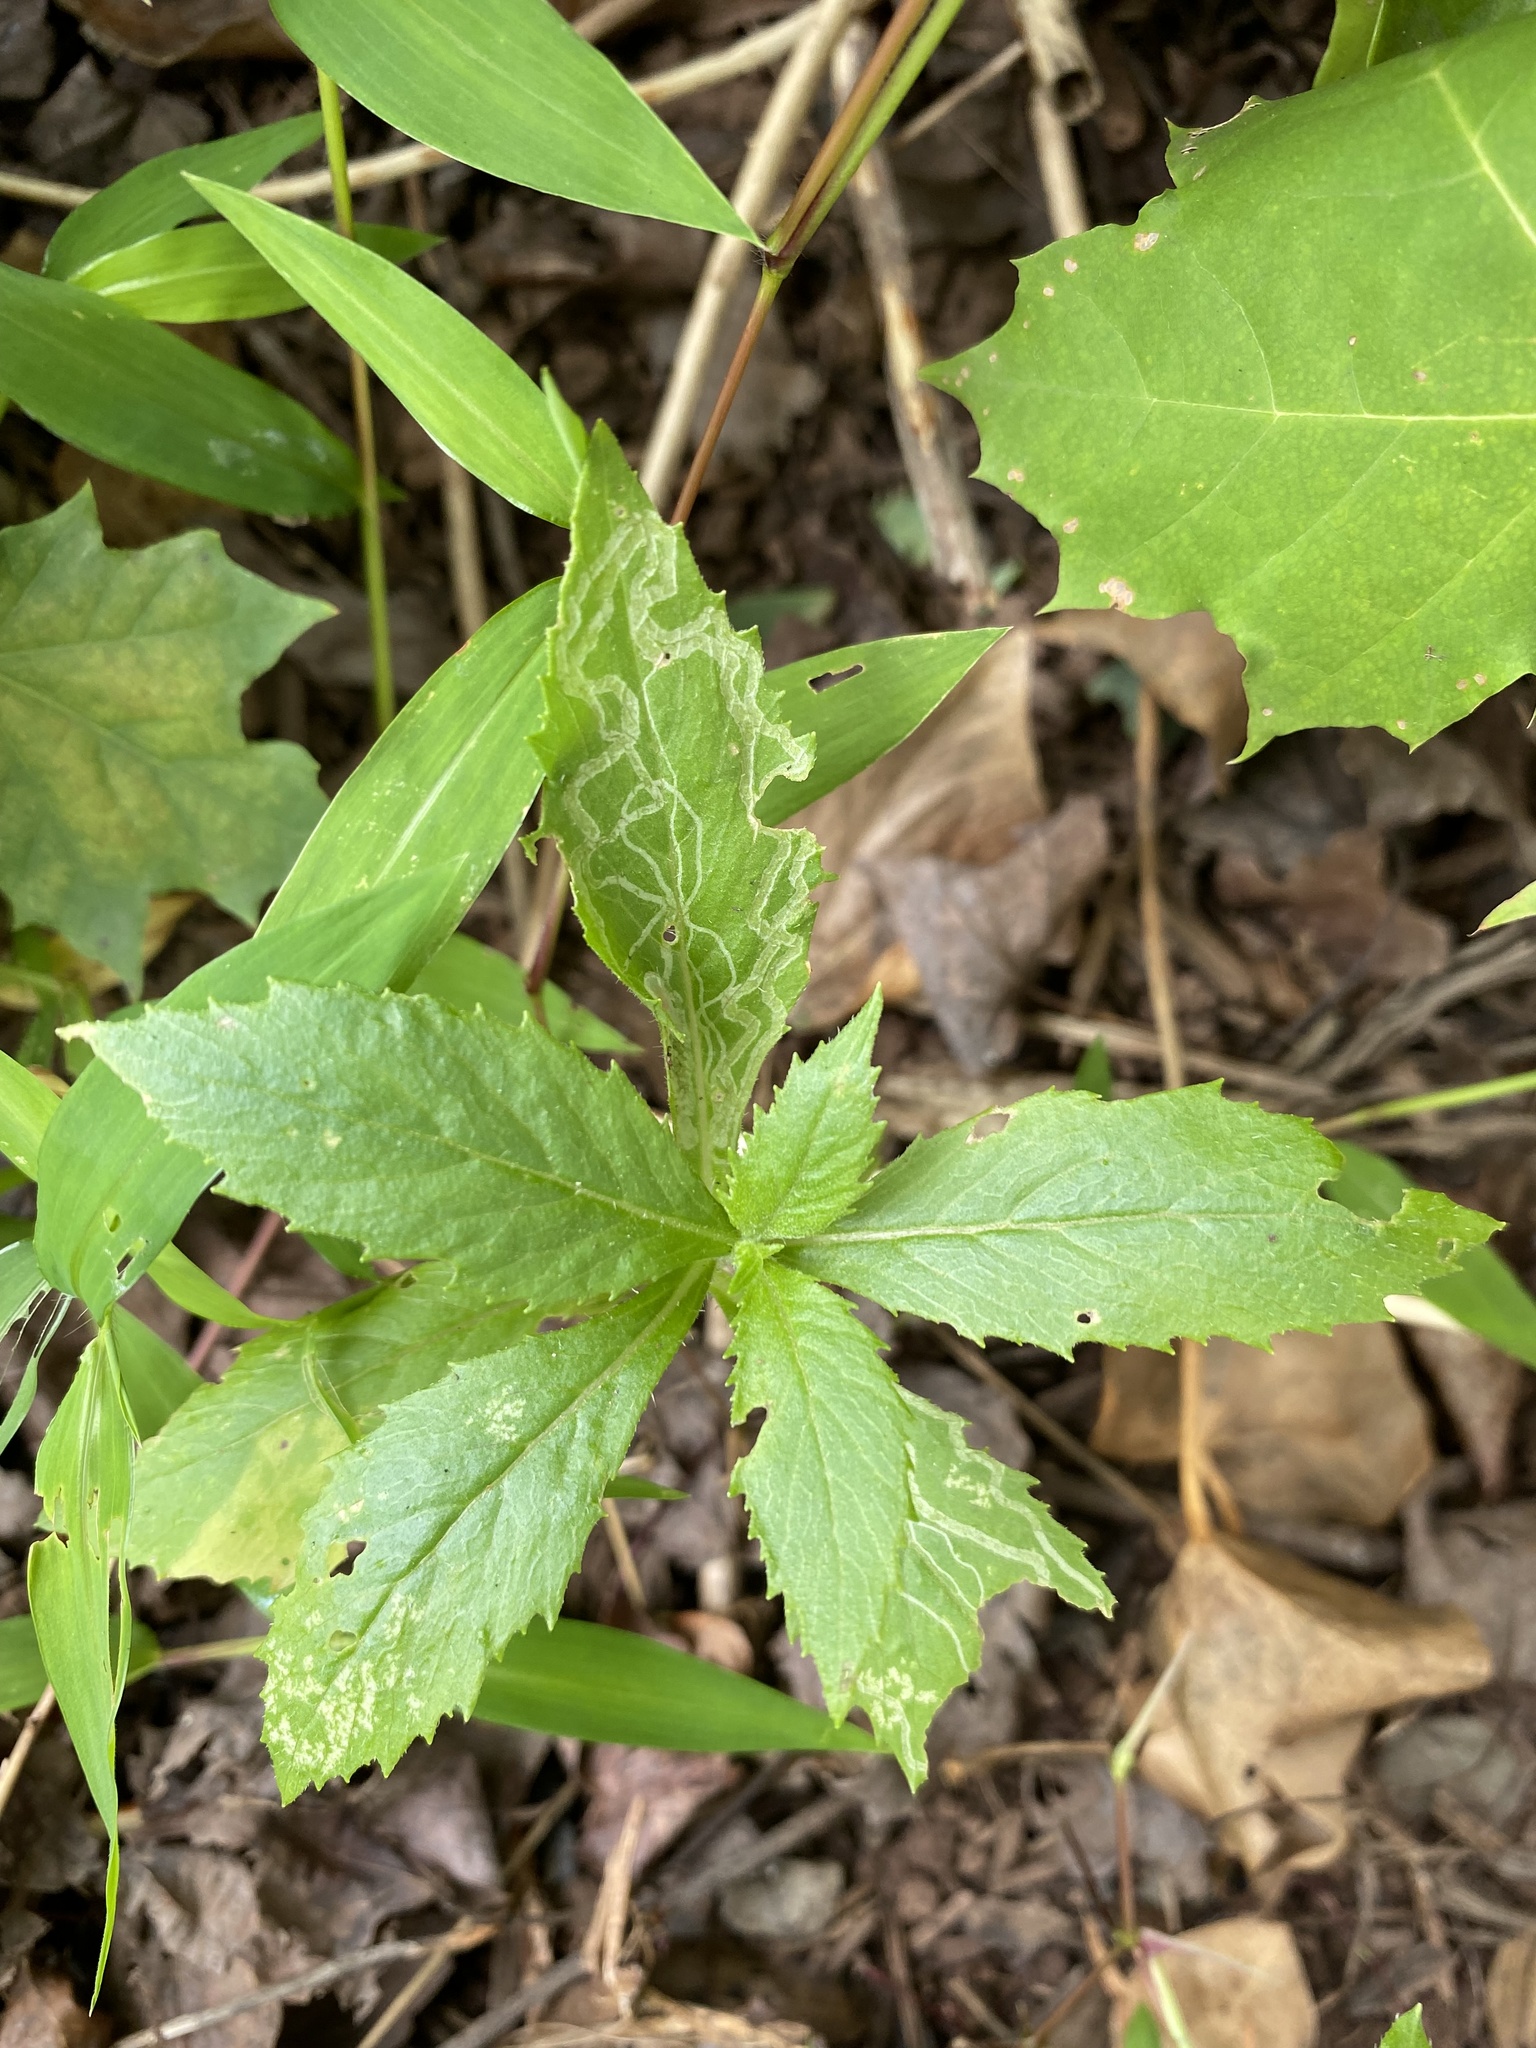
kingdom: Animalia
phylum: Arthropoda
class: Insecta
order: Lepidoptera
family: Gracillariidae
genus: Phyllocnistis
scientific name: Phyllocnistis insignis
